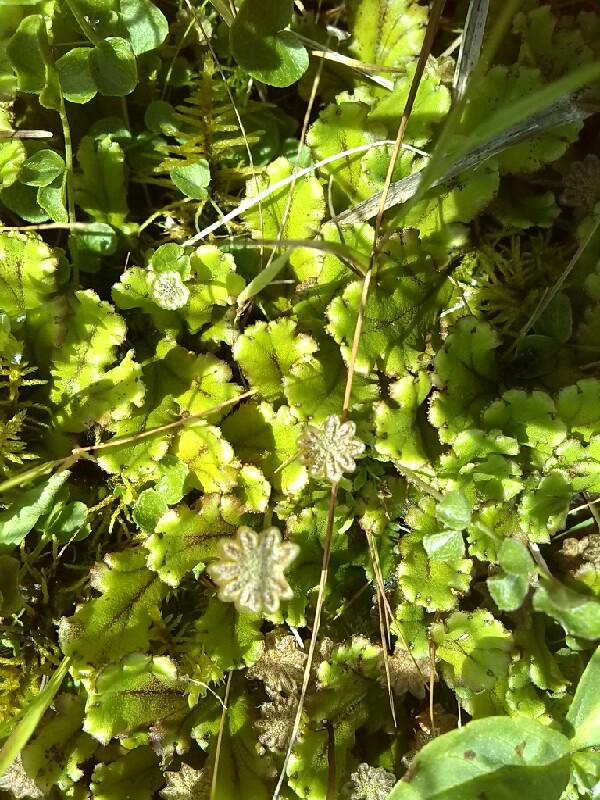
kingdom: Plantae
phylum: Marchantiophyta
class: Marchantiopsida
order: Marchantiales
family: Marchantiaceae
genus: Marchantia
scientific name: Marchantia polymorpha
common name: Common liverwort
